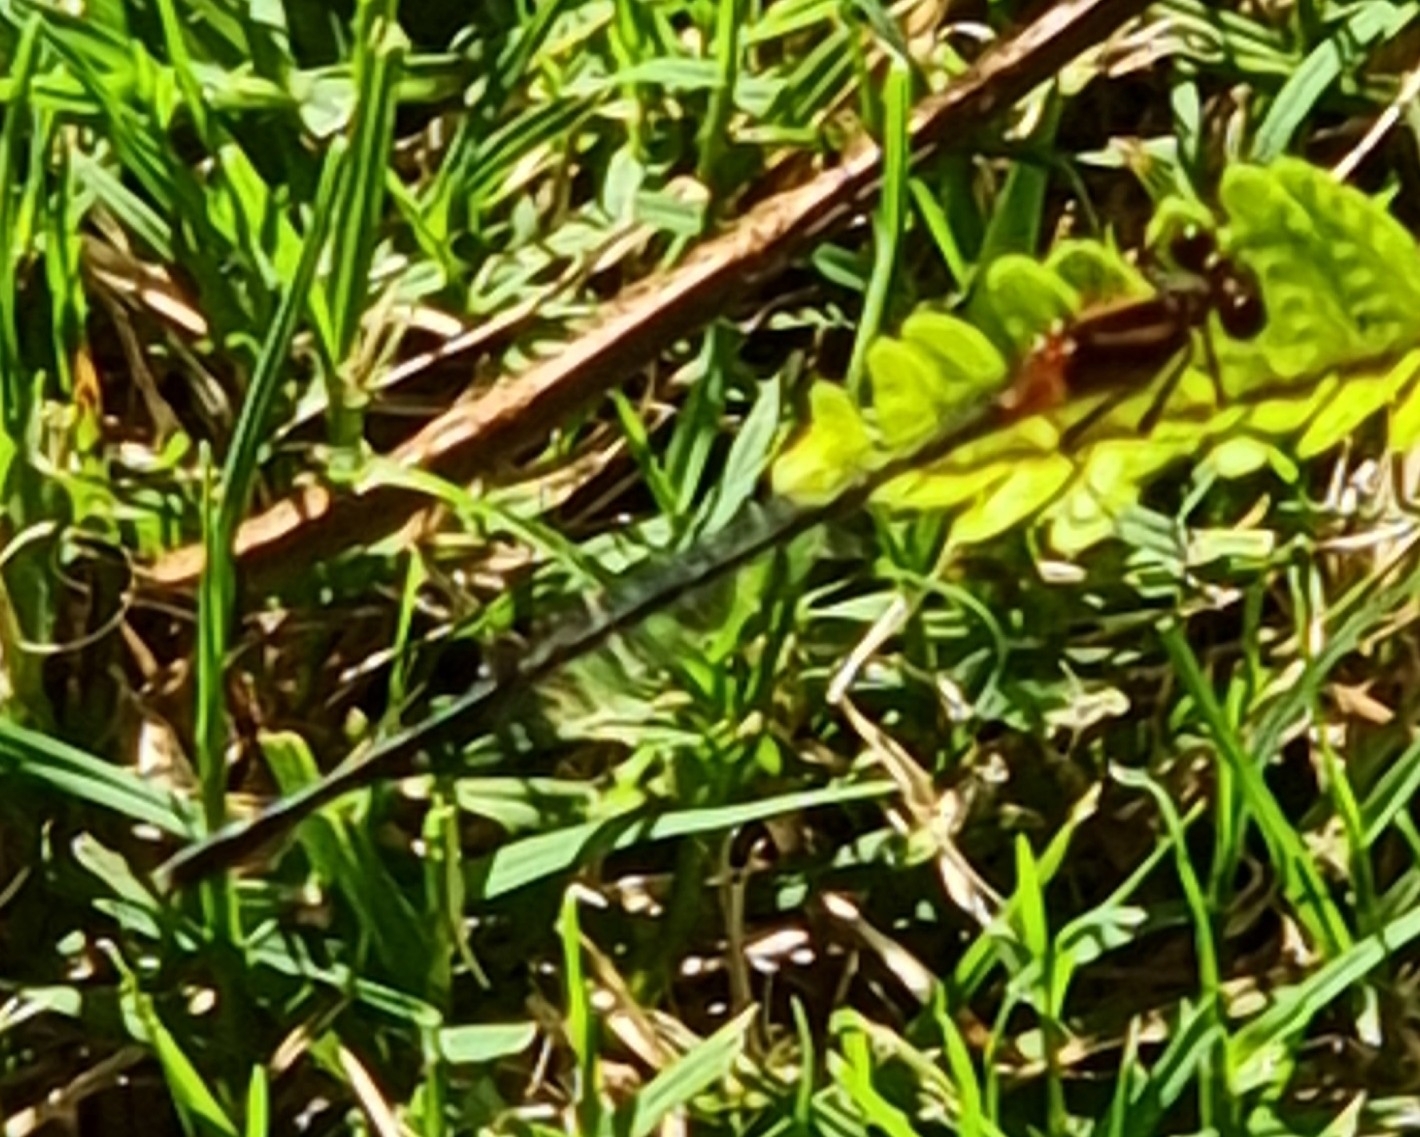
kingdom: Animalia
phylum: Arthropoda
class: Insecta
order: Odonata
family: Platycnemididae
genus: Nososticta
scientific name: Nososticta solida
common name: Orange threadtail
